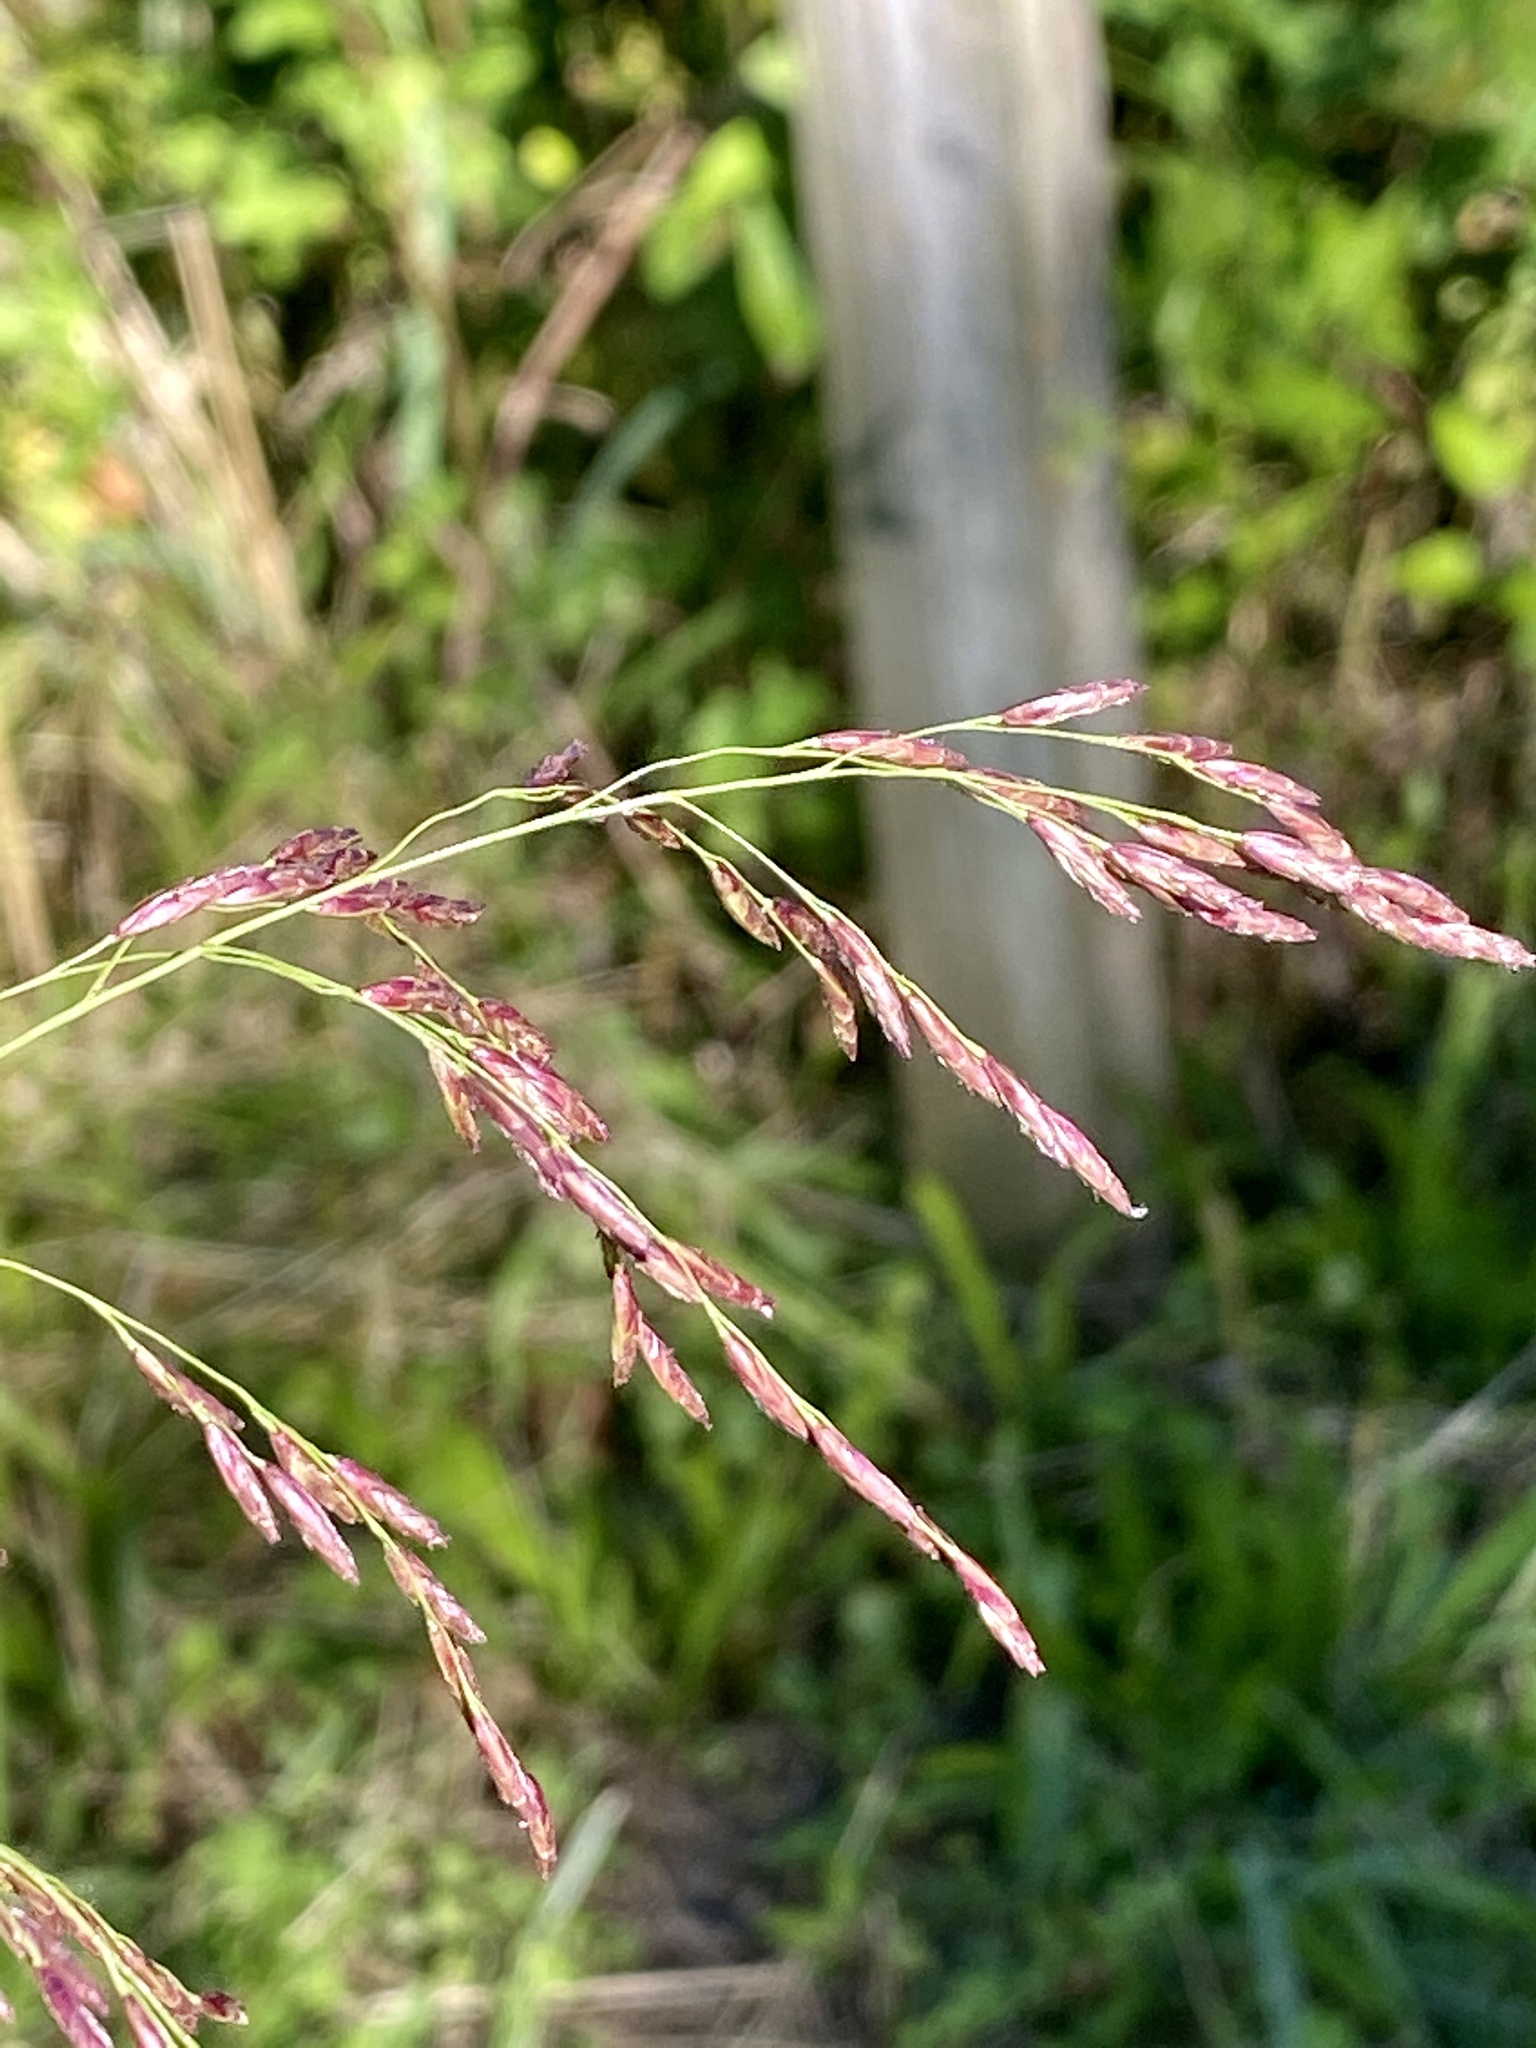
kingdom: Plantae
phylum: Tracheophyta
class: Liliopsida
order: Poales
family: Poaceae
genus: Tridens
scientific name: Tridens flavus
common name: Purpletop
